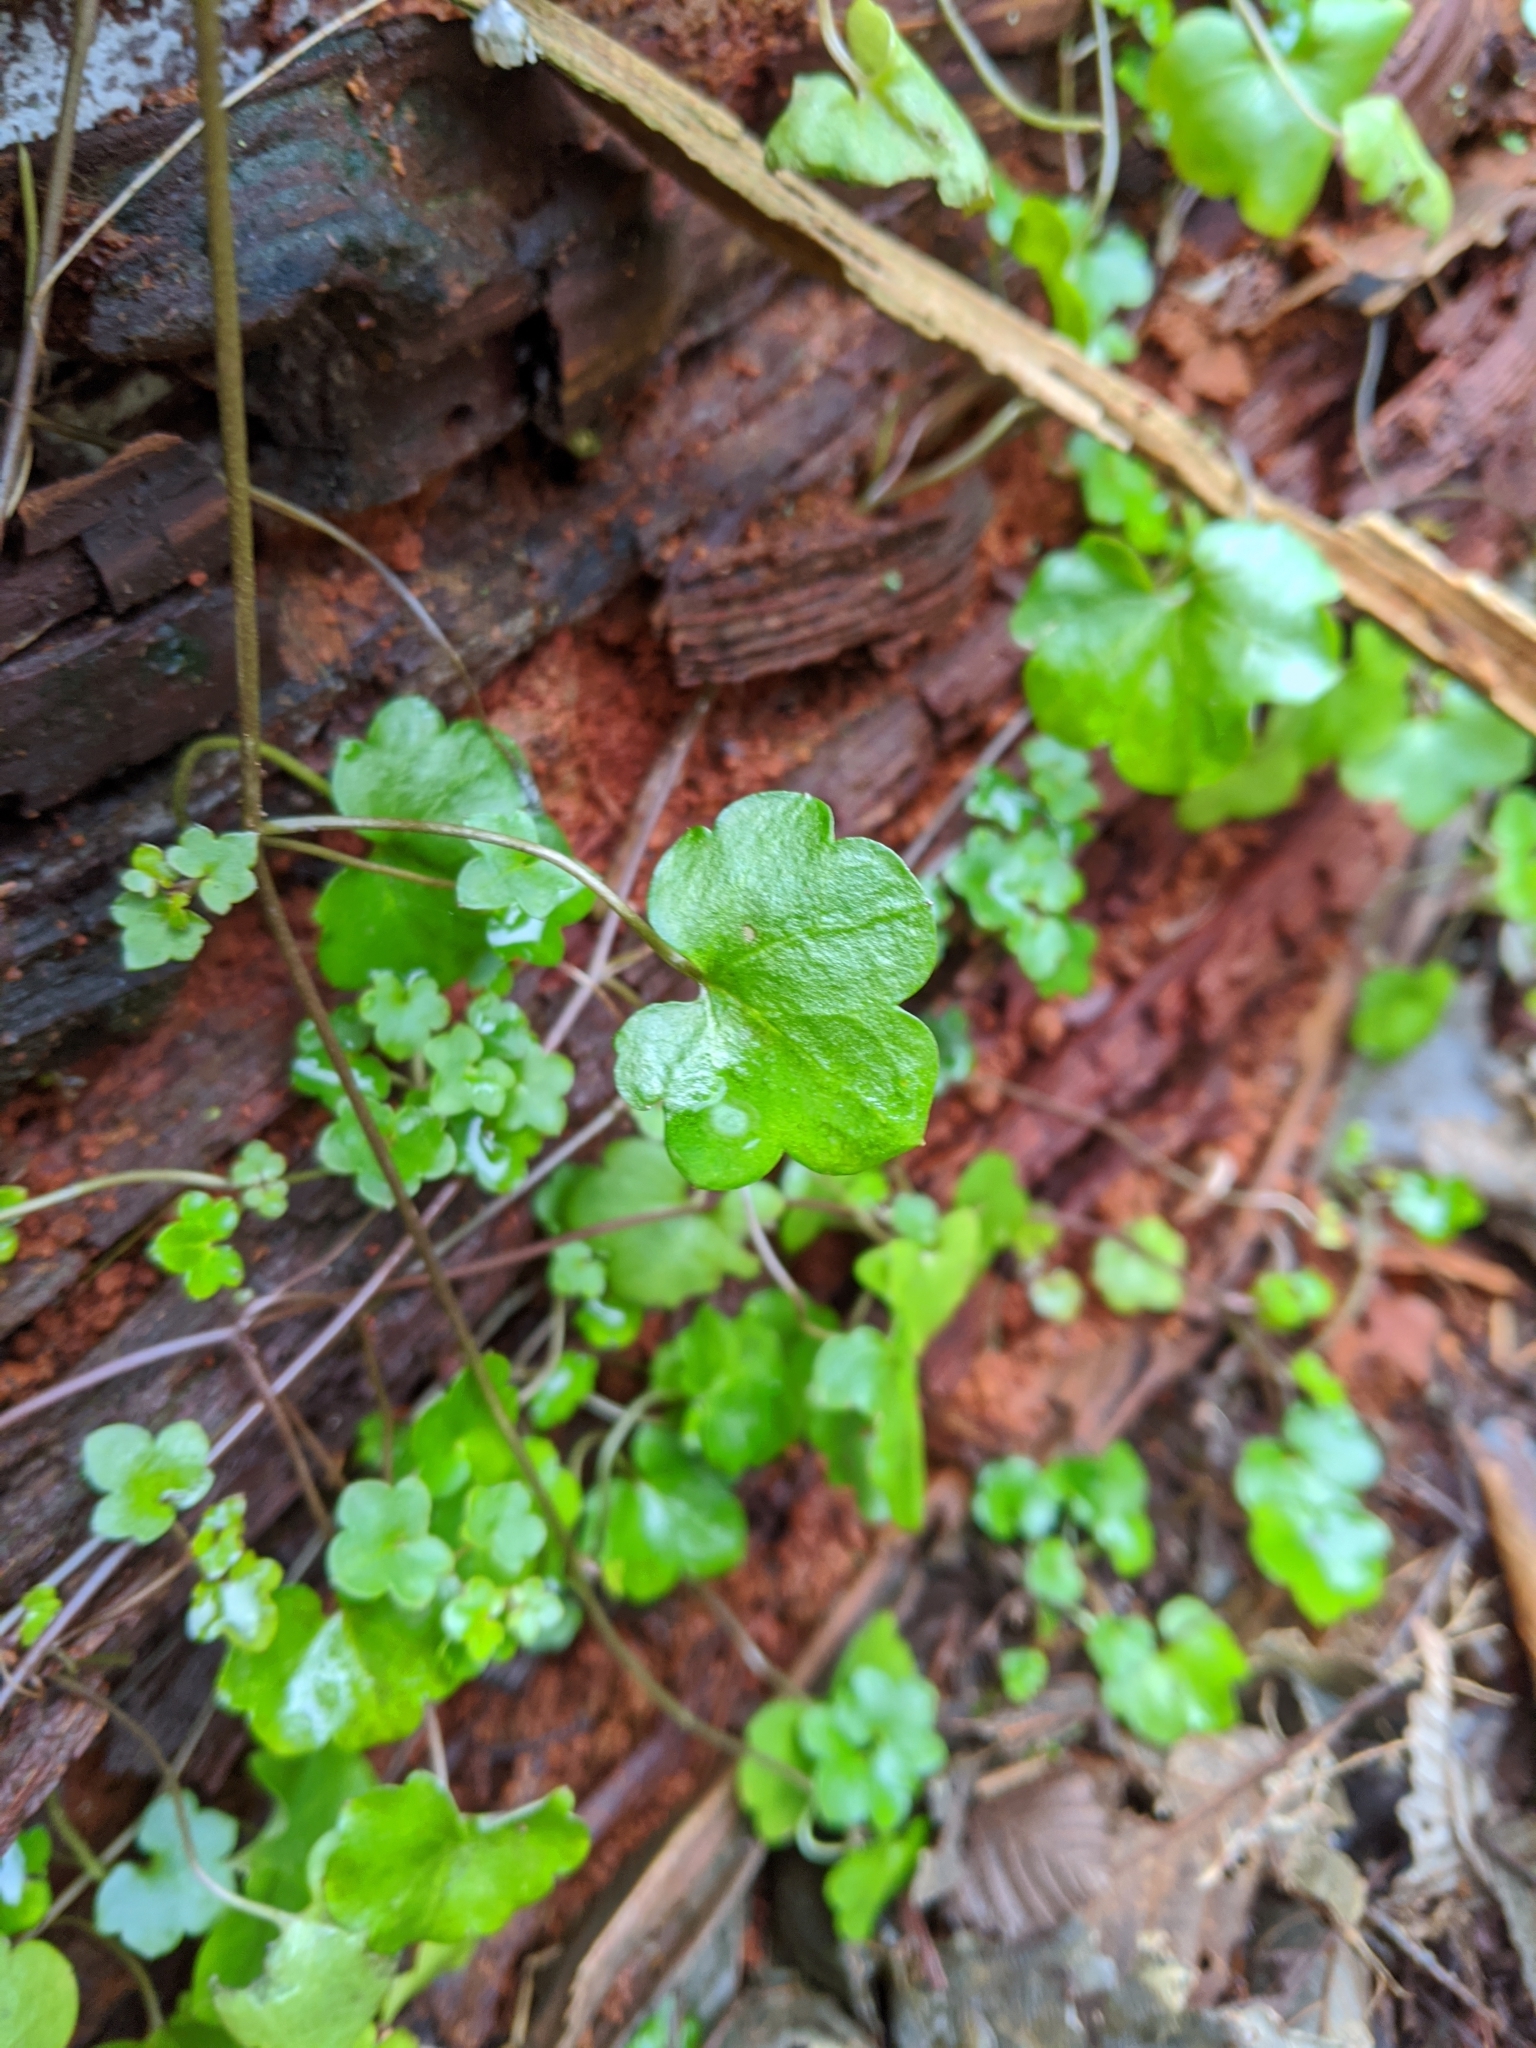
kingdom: Plantae
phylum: Tracheophyta
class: Magnoliopsida
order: Lamiales
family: Plantaginaceae
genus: Cymbalaria
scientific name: Cymbalaria muralis
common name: Ivy-leaved toadflax
